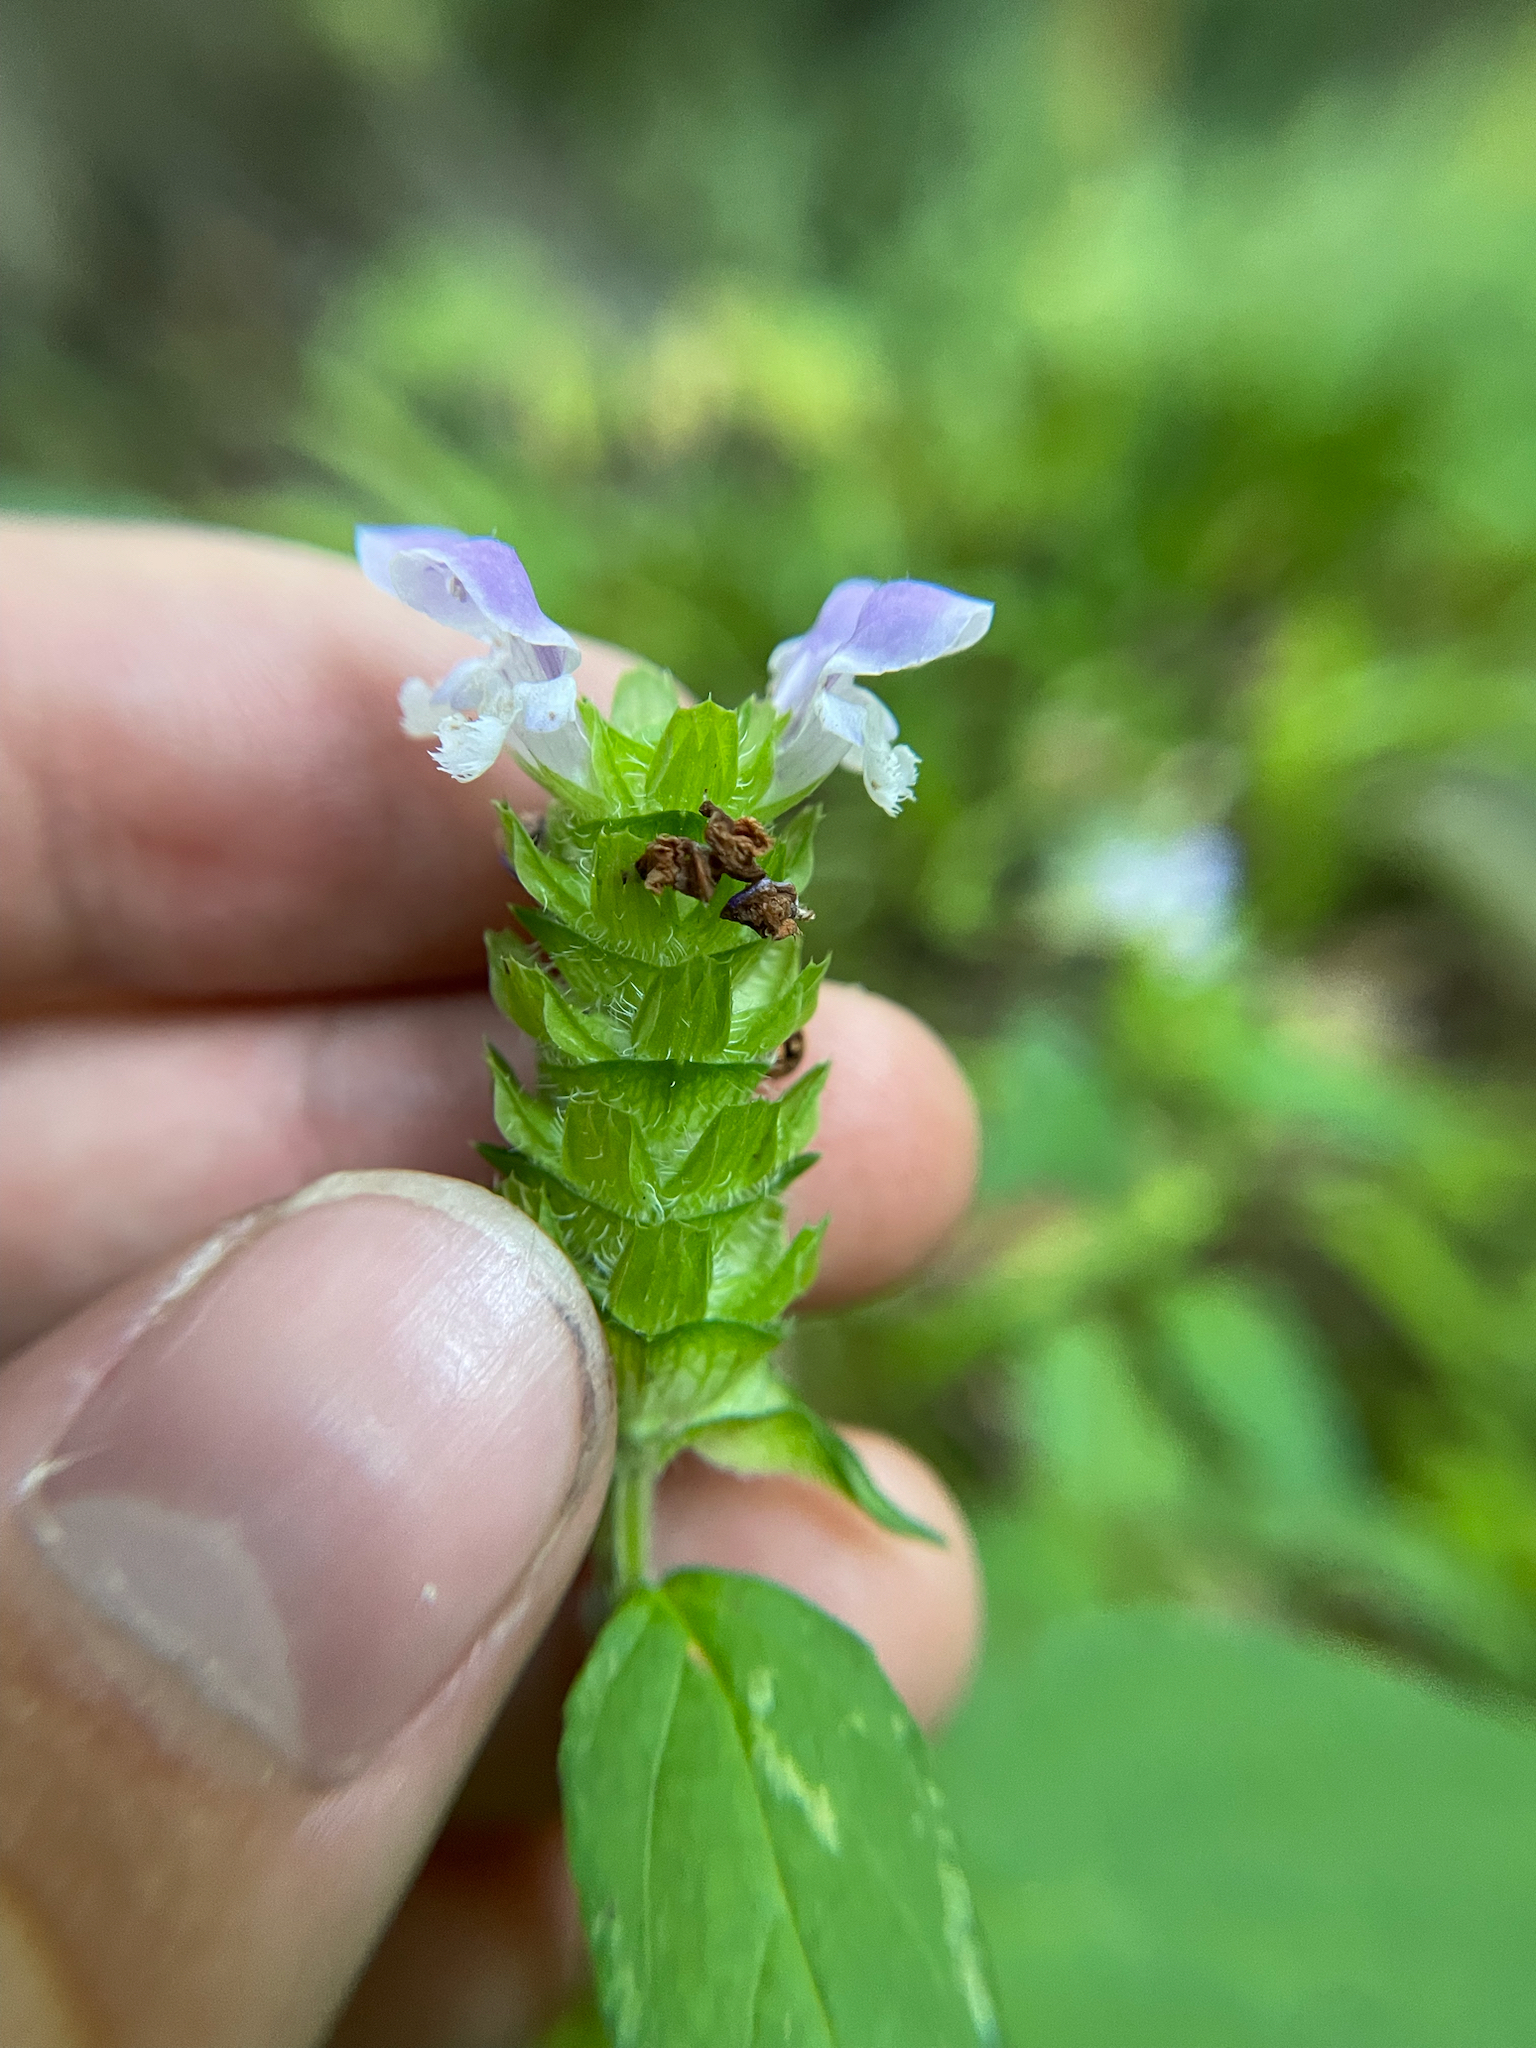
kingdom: Plantae
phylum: Tracheophyta
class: Magnoliopsida
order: Lamiales
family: Lamiaceae
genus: Prunella
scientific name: Prunella vulgaris
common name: Heal-all
